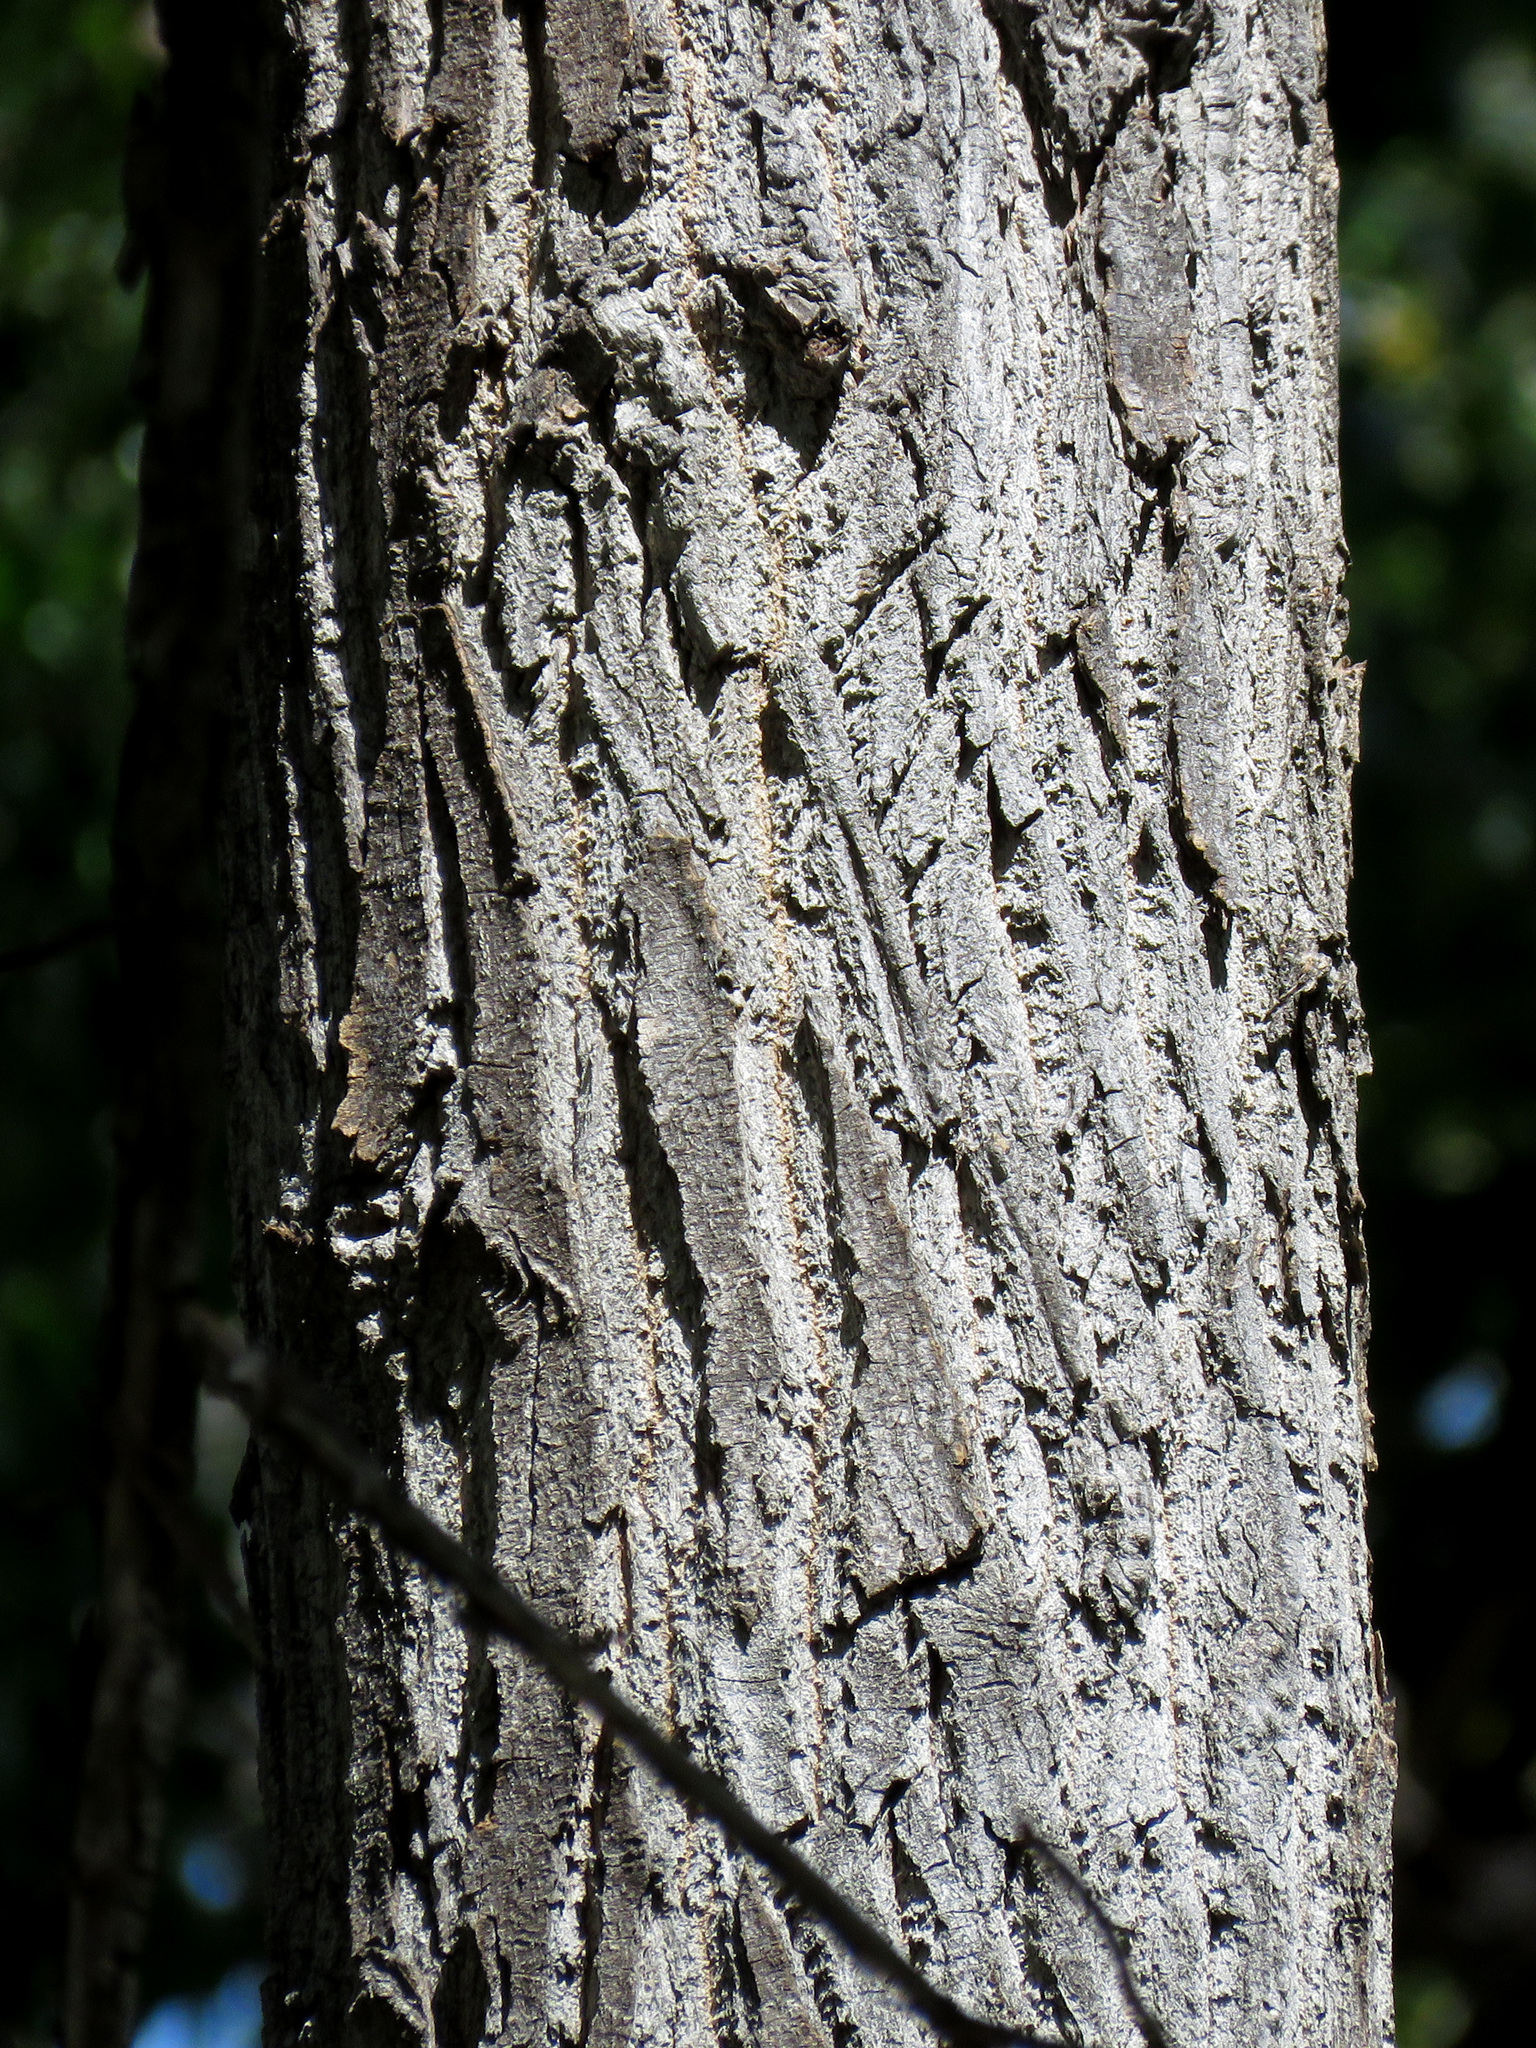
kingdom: Plantae
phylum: Tracheophyta
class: Magnoliopsida
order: Malpighiales
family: Salicaceae
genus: Populus
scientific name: Populus fremontii
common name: Fremont's cottonwood
